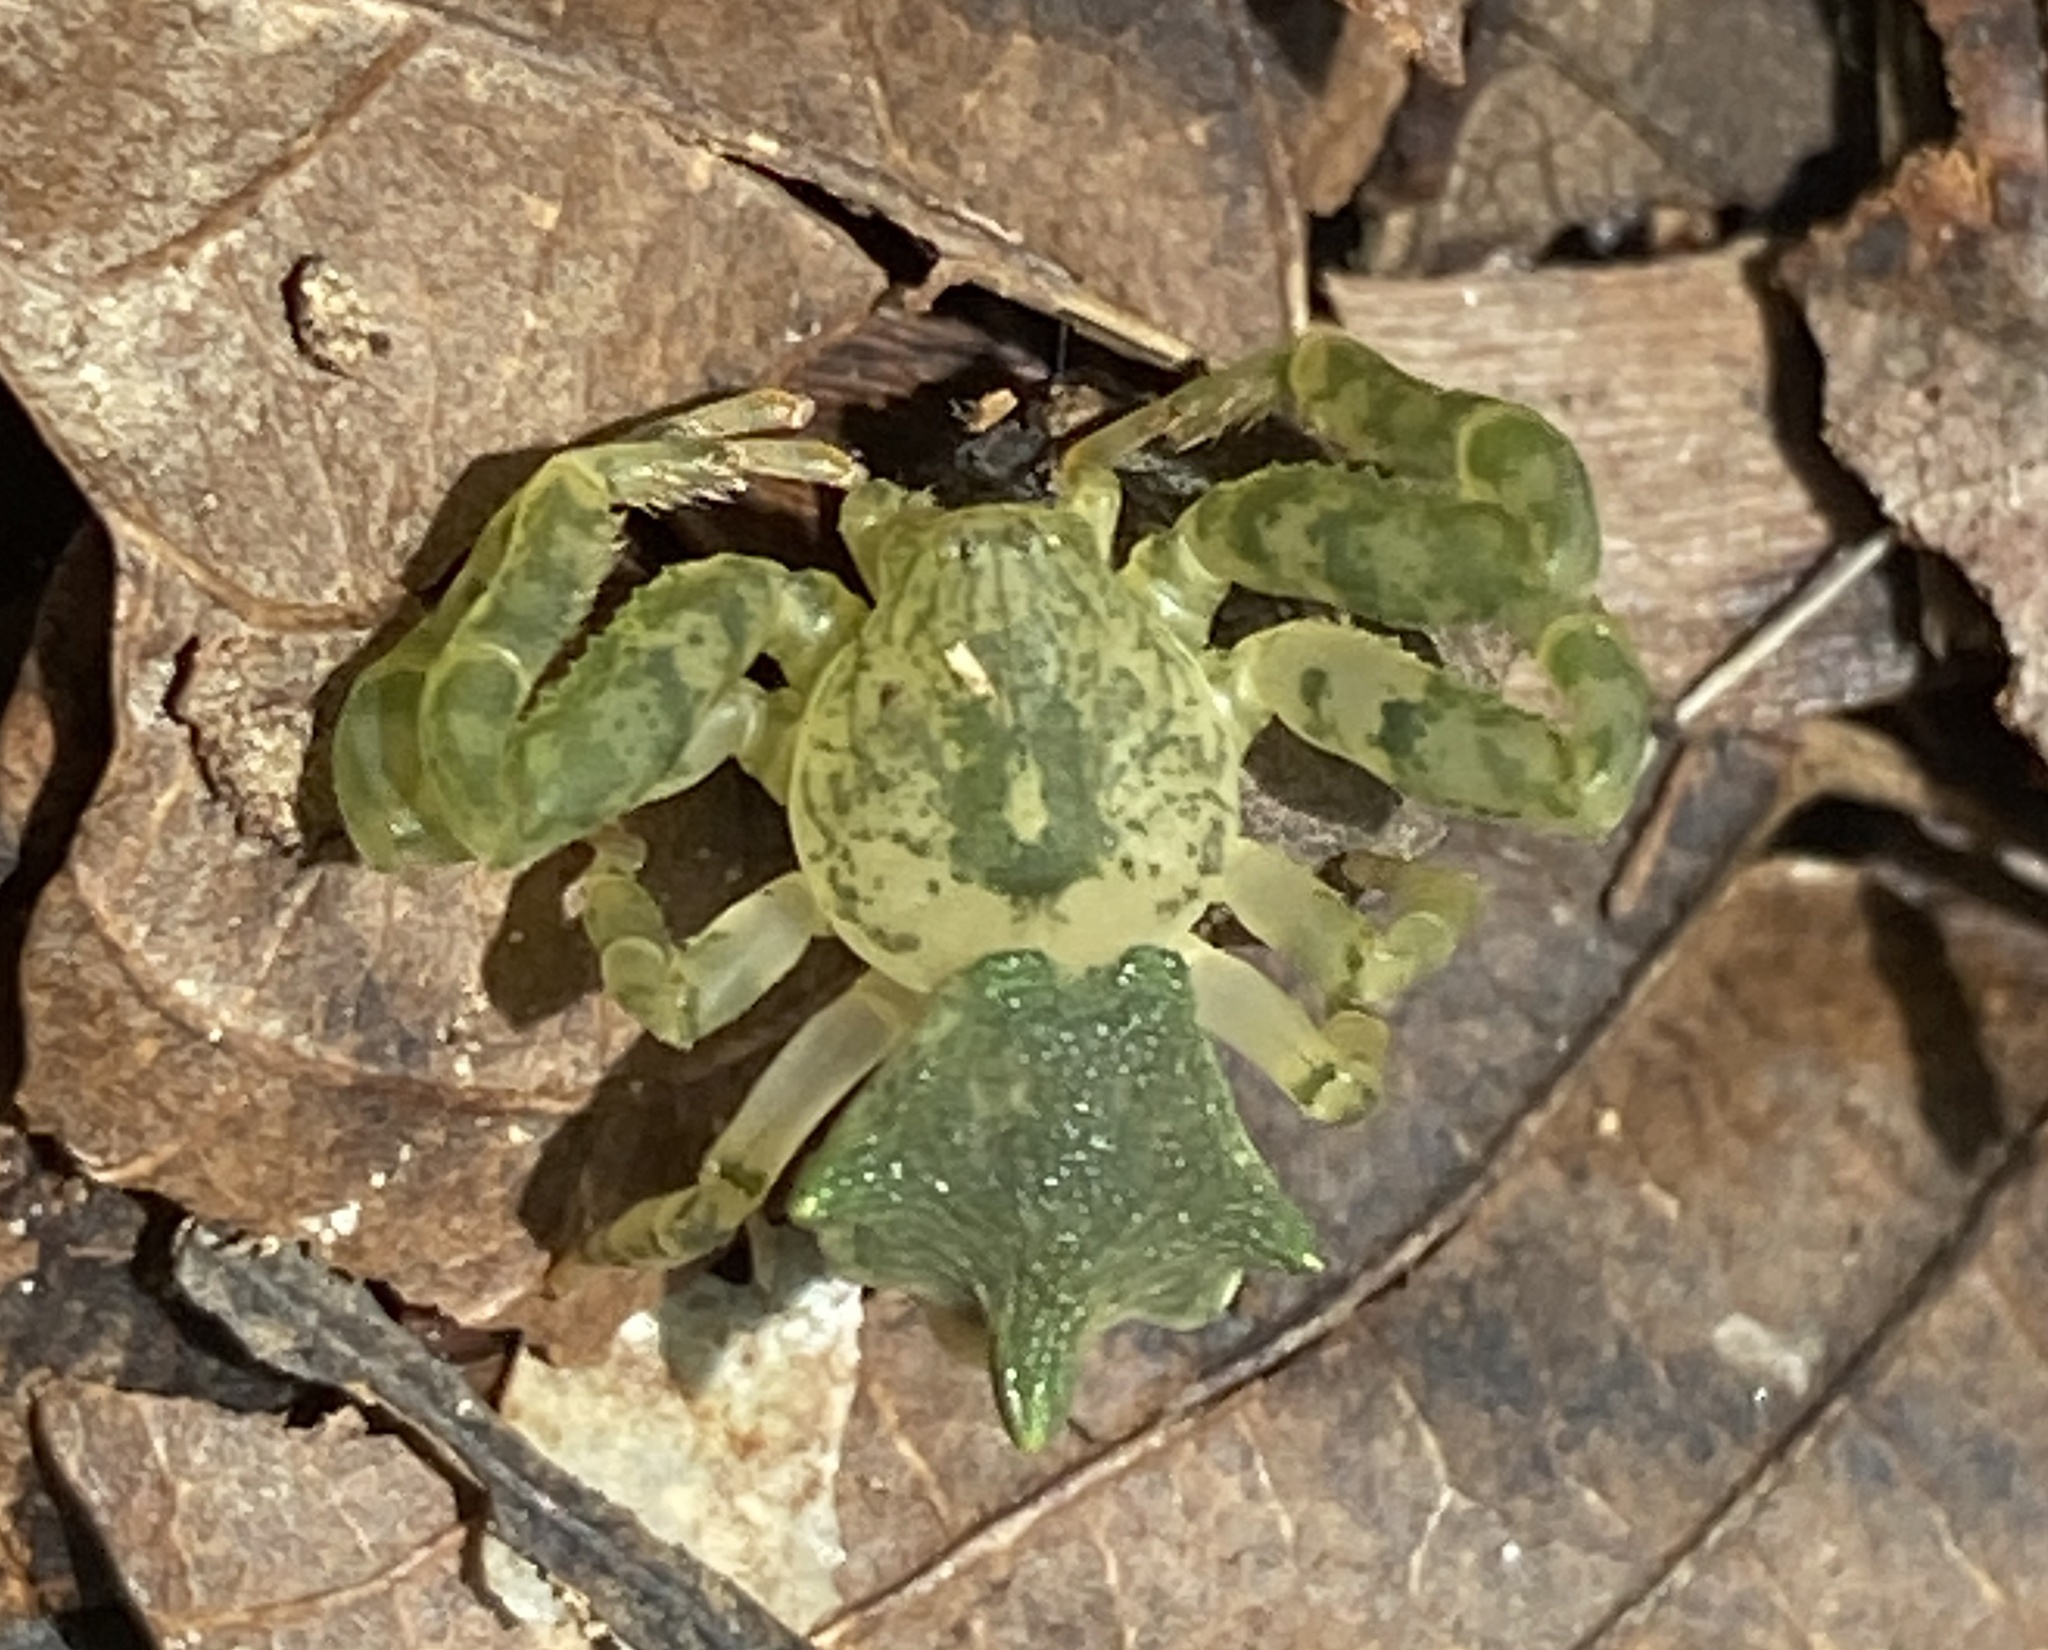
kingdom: Animalia
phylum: Arthropoda
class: Arachnida
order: Araneae
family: Thomisidae
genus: Epicadus
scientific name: Epicadus dimidiaster
